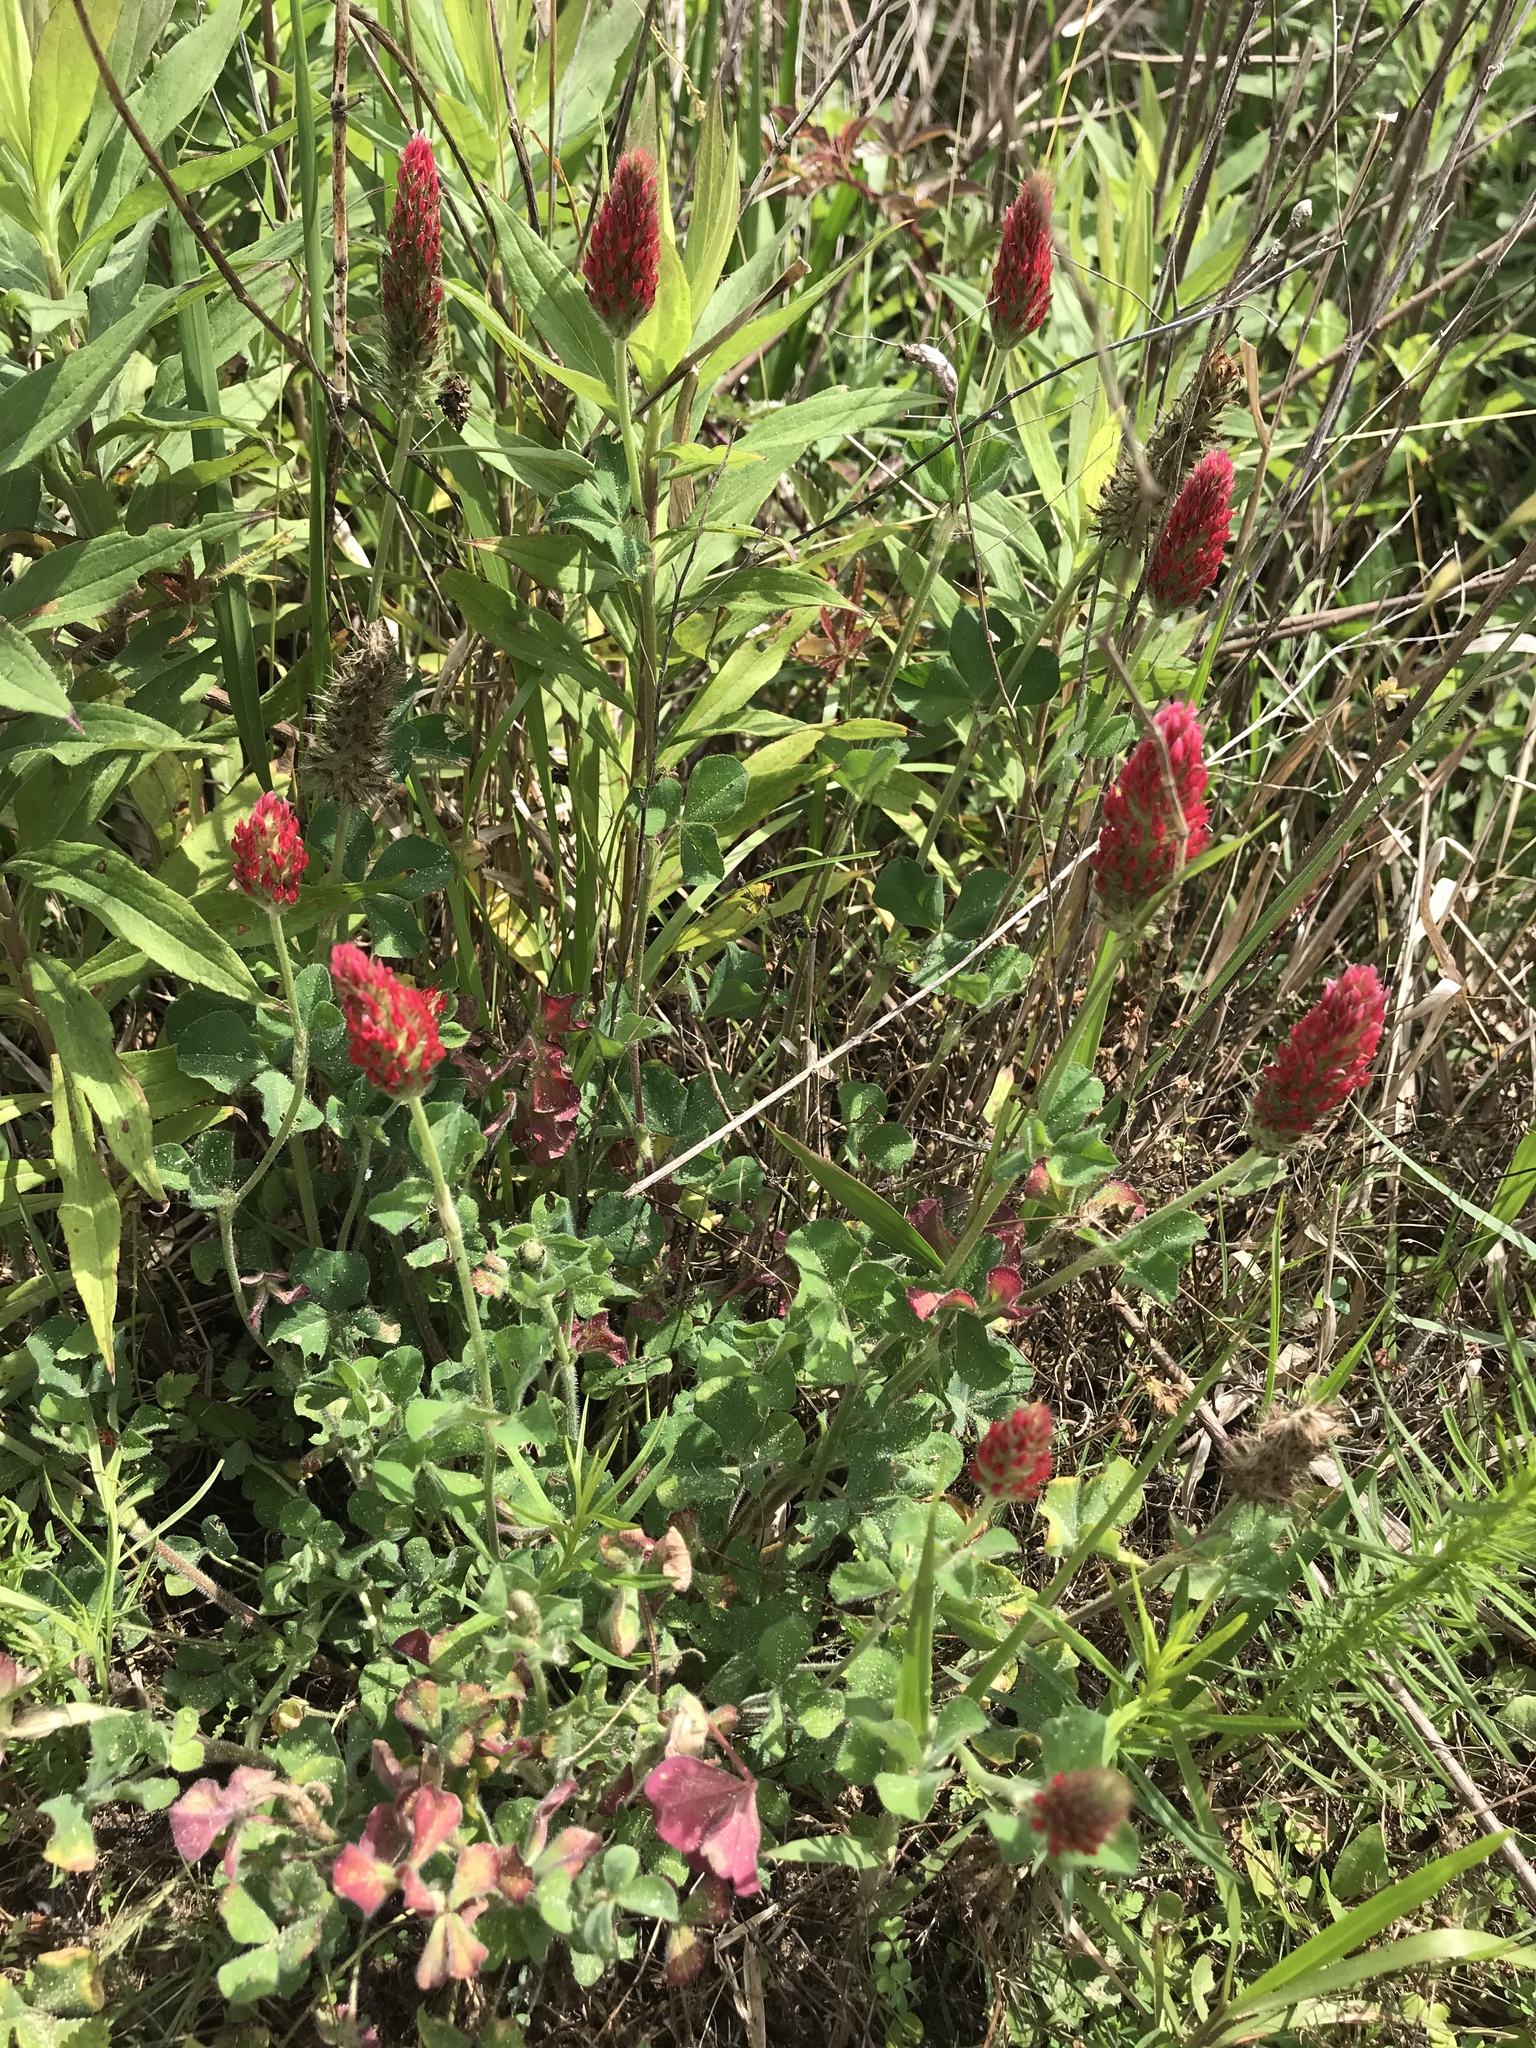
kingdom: Plantae
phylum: Tracheophyta
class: Magnoliopsida
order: Fabales
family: Fabaceae
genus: Trifolium
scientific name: Trifolium incarnatum
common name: Crimson clover
